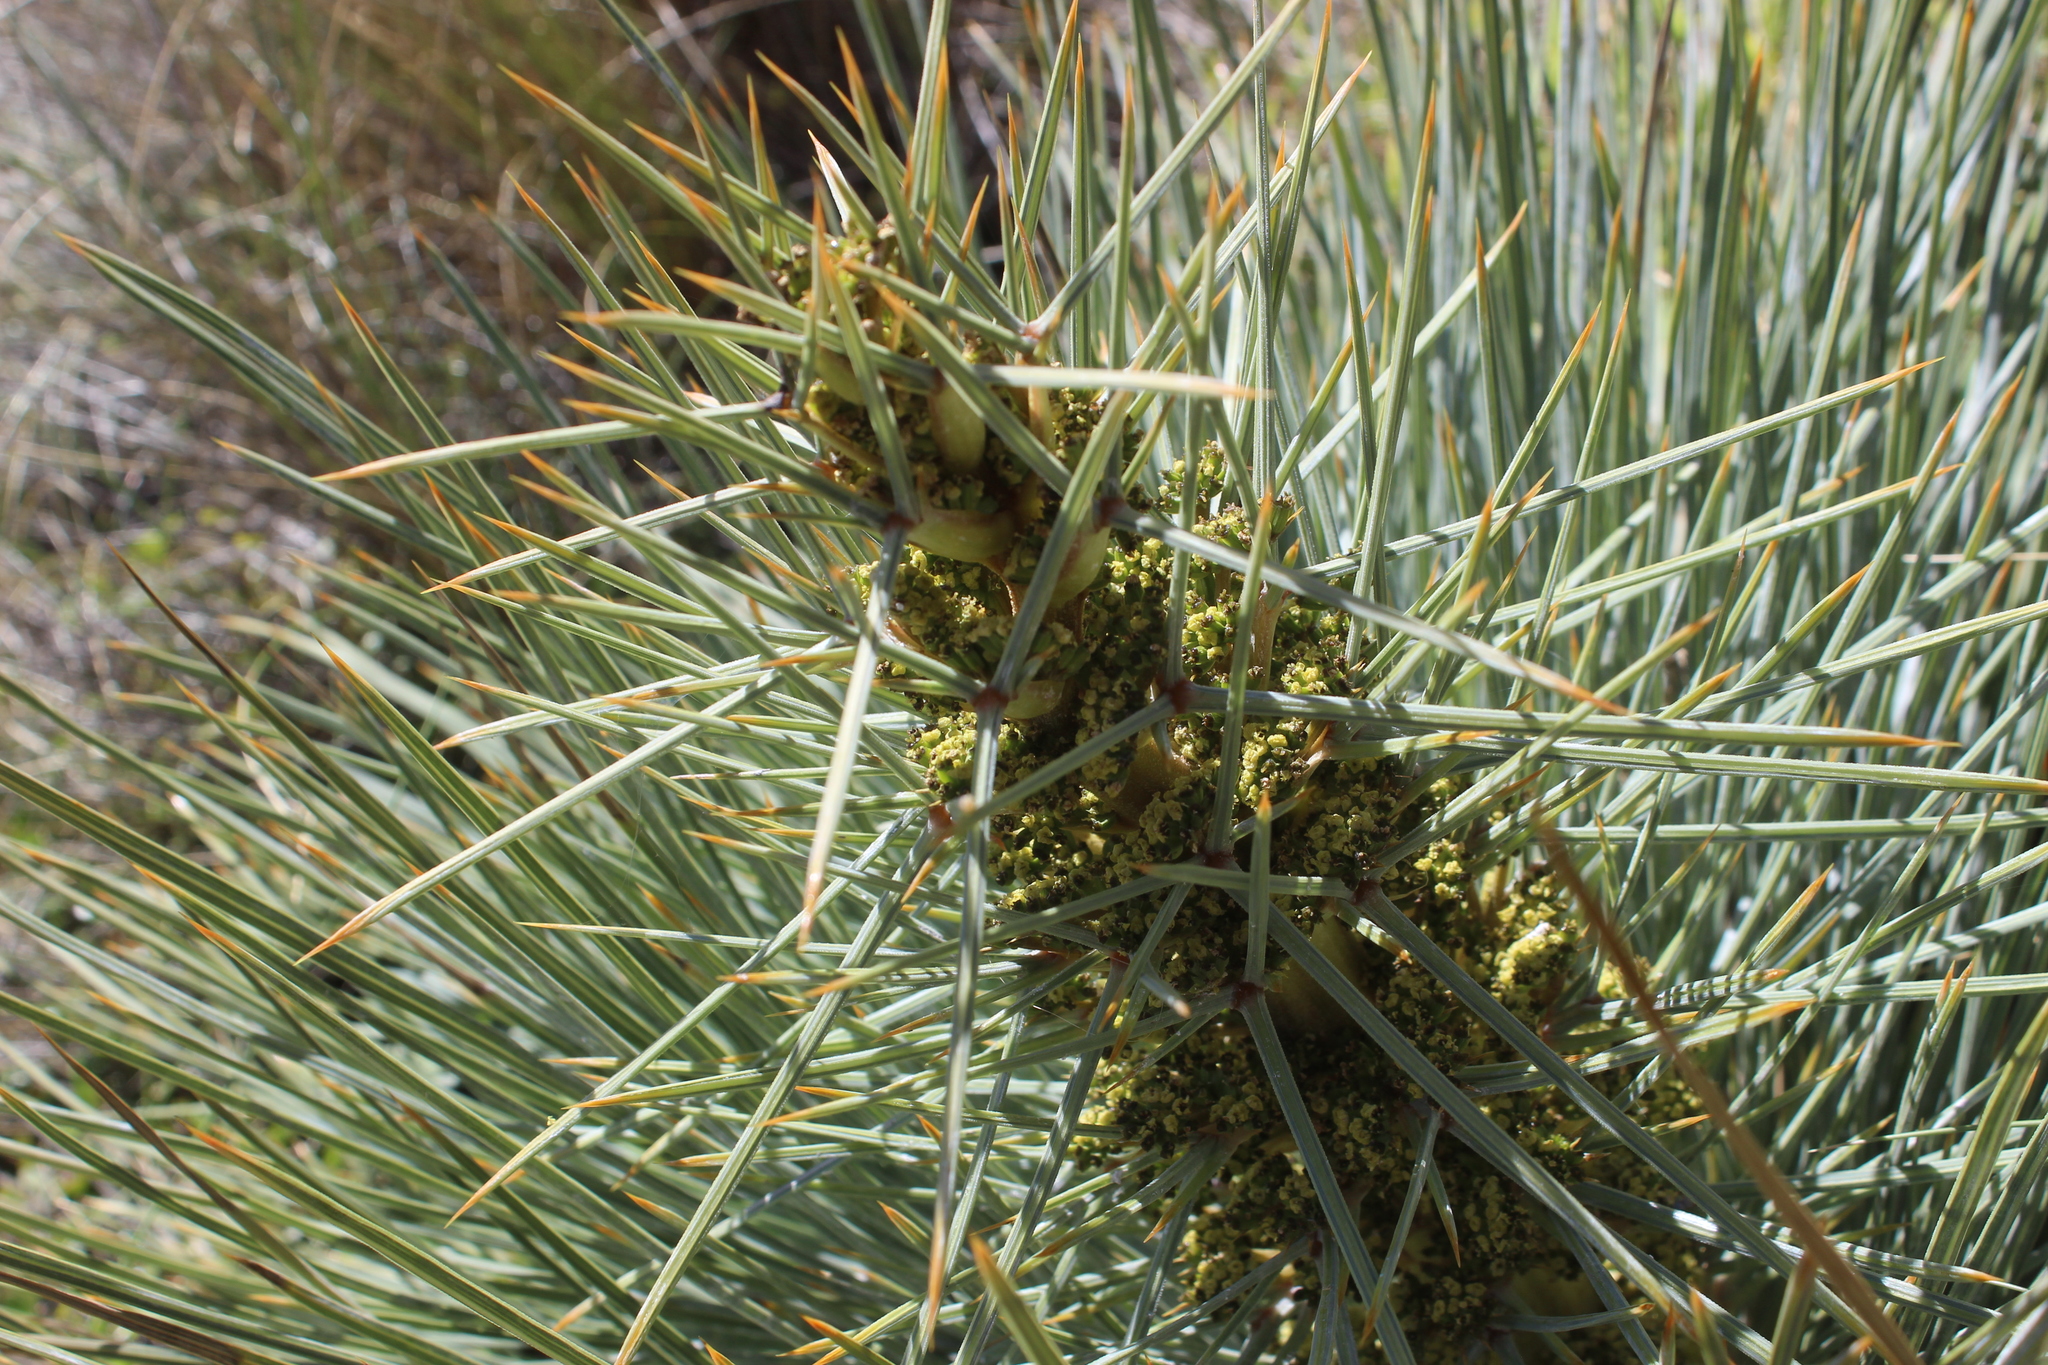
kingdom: Plantae
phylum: Tracheophyta
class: Magnoliopsida
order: Apiales
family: Apiaceae
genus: Aciphylla
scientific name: Aciphylla squarrosa
